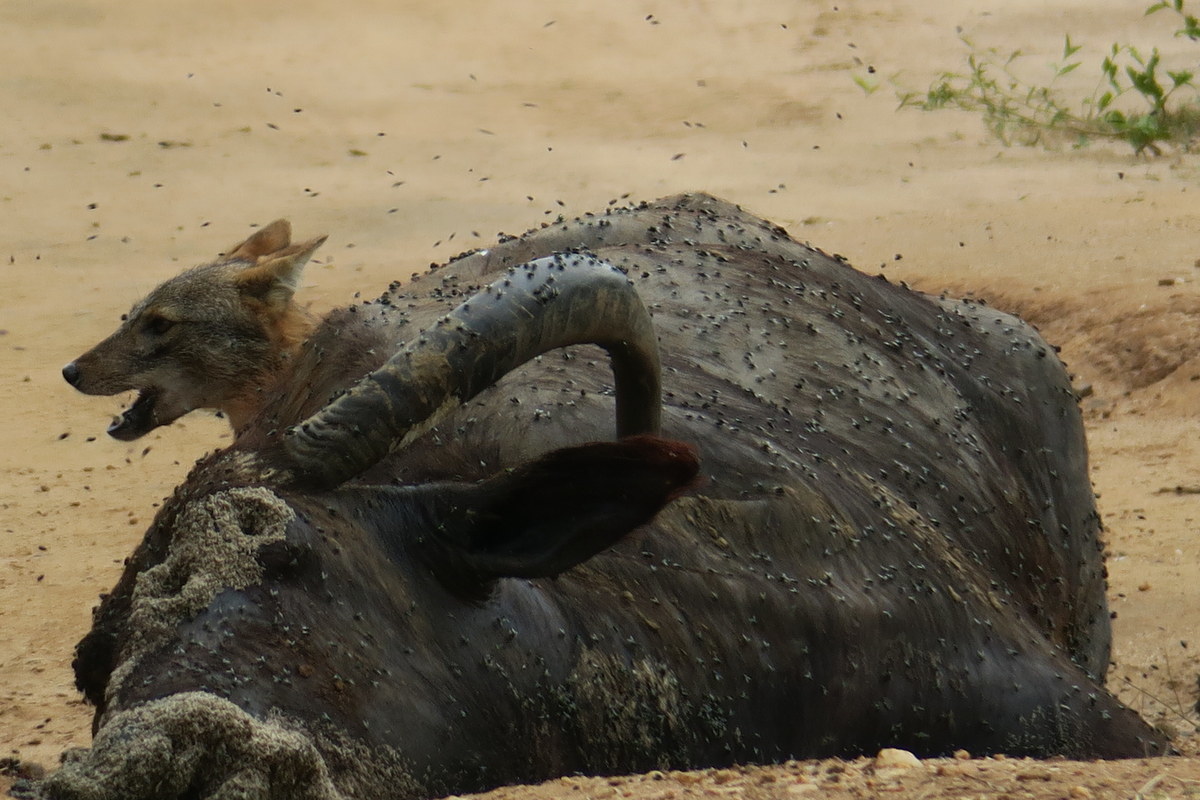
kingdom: Animalia
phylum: Chordata
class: Mammalia
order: Carnivora
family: Canidae
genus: Canis
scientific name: Canis aureus
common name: Golden jackal
